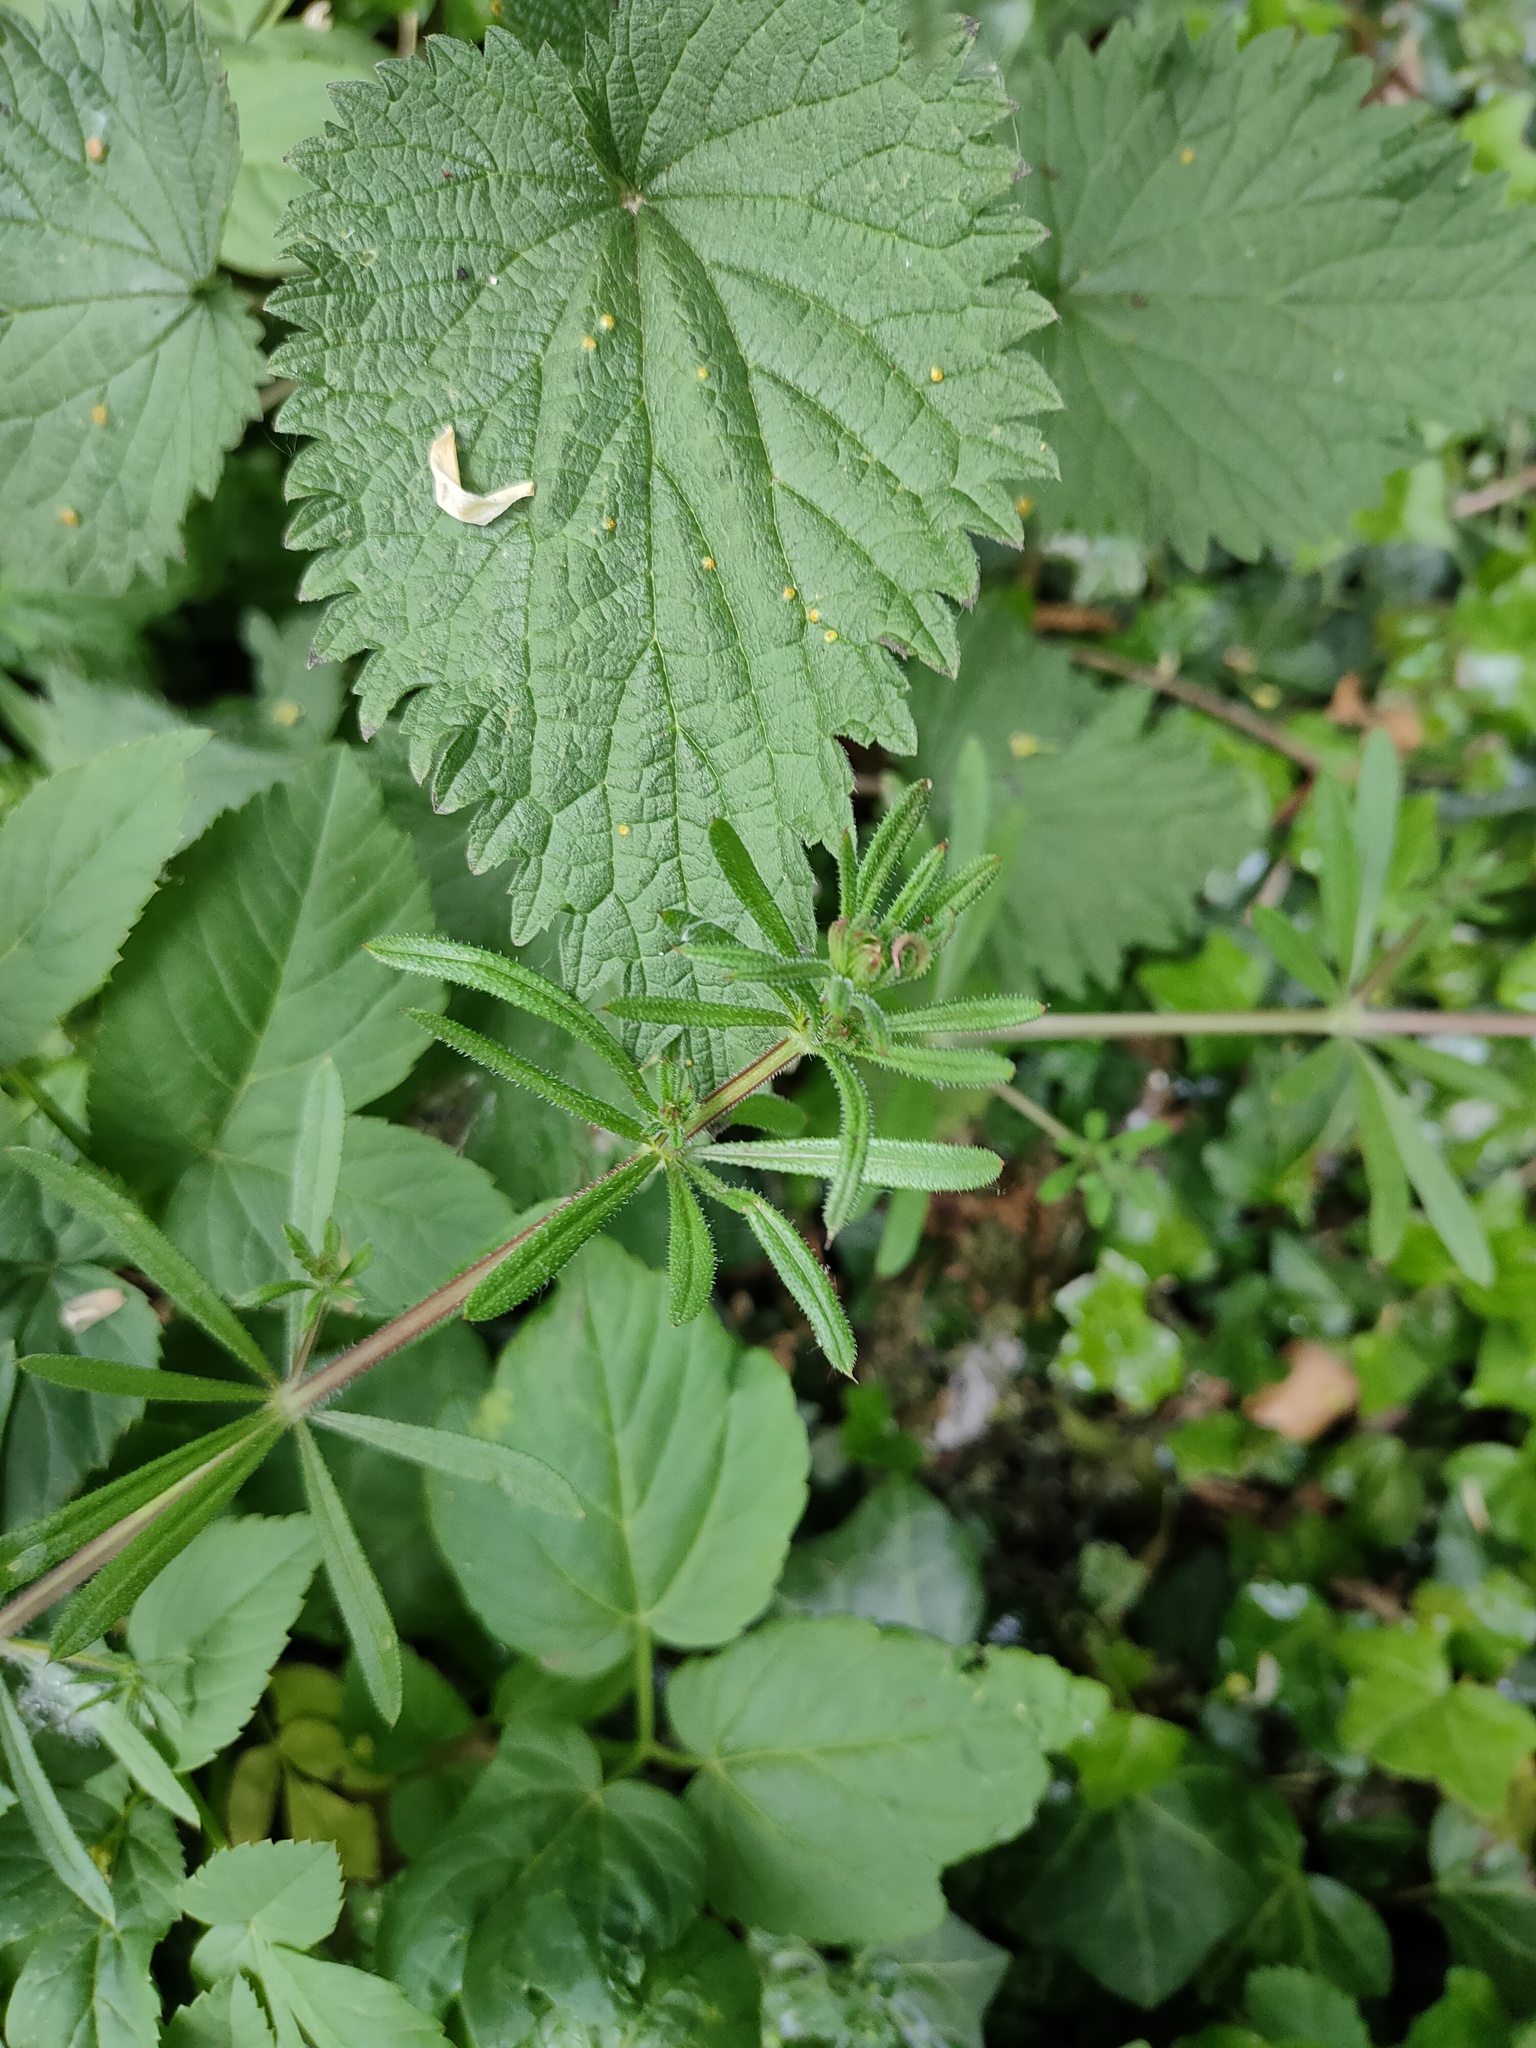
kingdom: Plantae
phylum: Tracheophyta
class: Magnoliopsida
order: Gentianales
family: Rubiaceae
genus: Galium
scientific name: Galium aparine
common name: Cleavers
